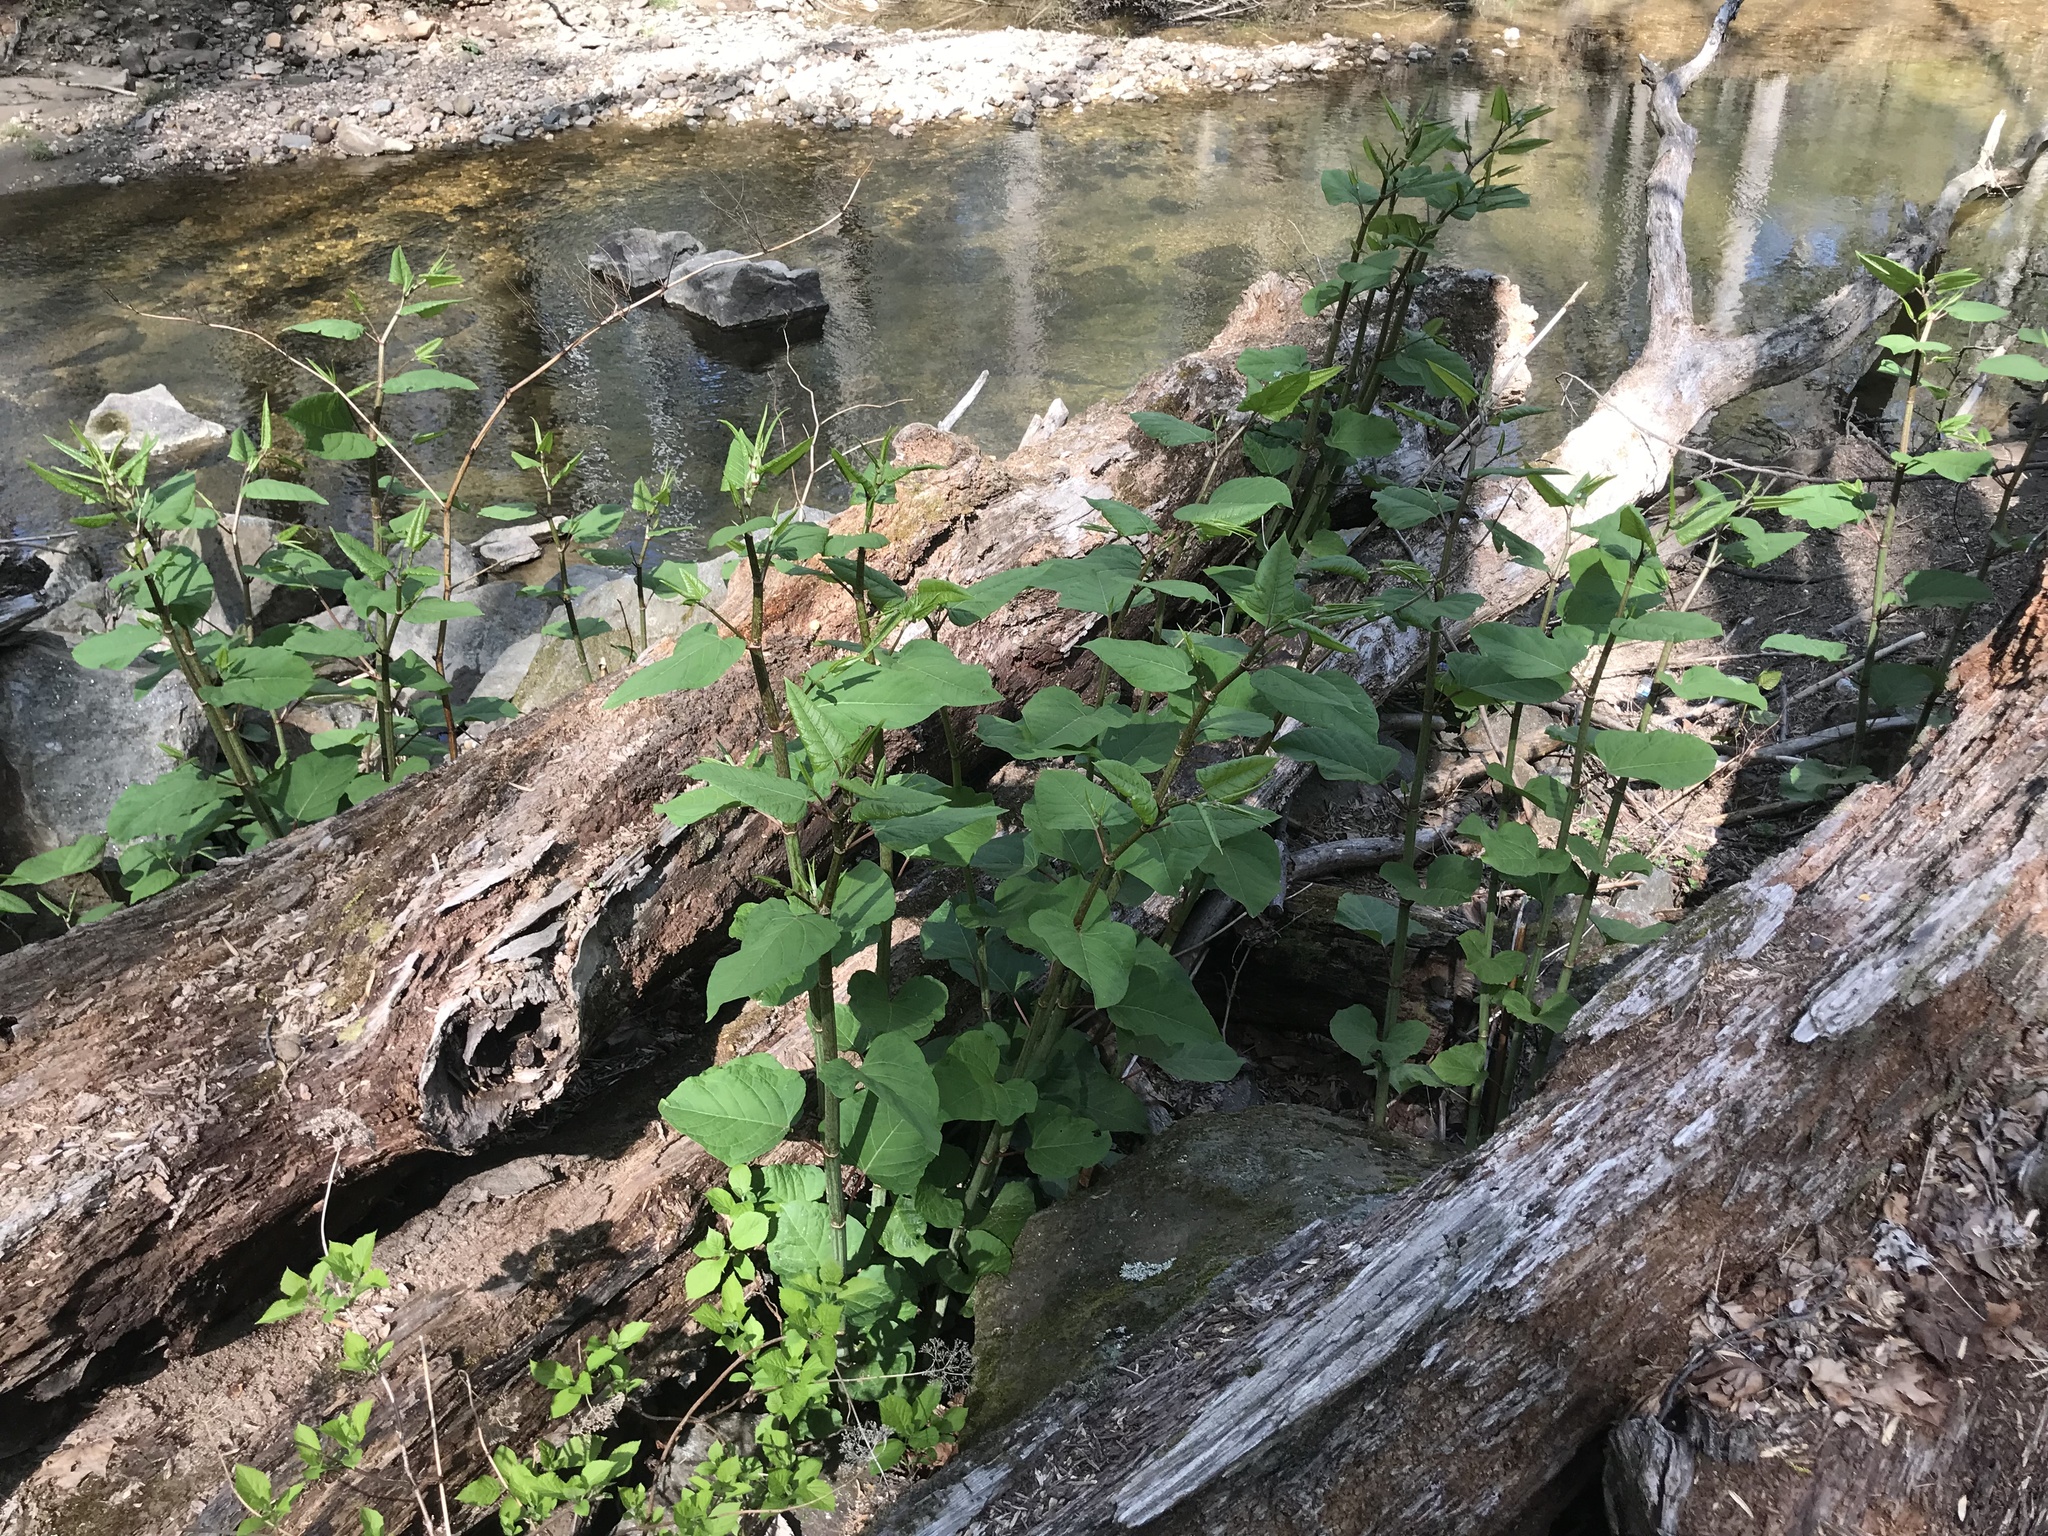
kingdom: Plantae
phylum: Tracheophyta
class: Magnoliopsida
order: Caryophyllales
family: Polygonaceae
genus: Reynoutria
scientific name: Reynoutria japonica
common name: Japanese knotweed
